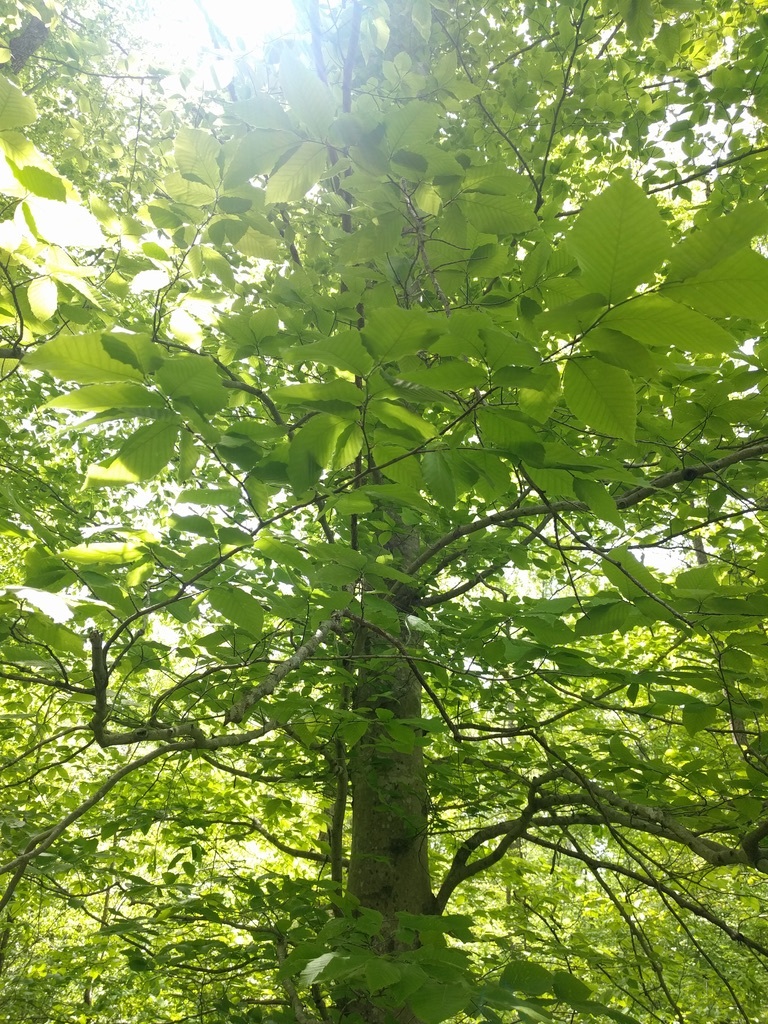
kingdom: Plantae
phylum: Tracheophyta
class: Magnoliopsida
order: Fagales
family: Fagaceae
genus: Fagus
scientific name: Fagus grandifolia
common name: American beech
